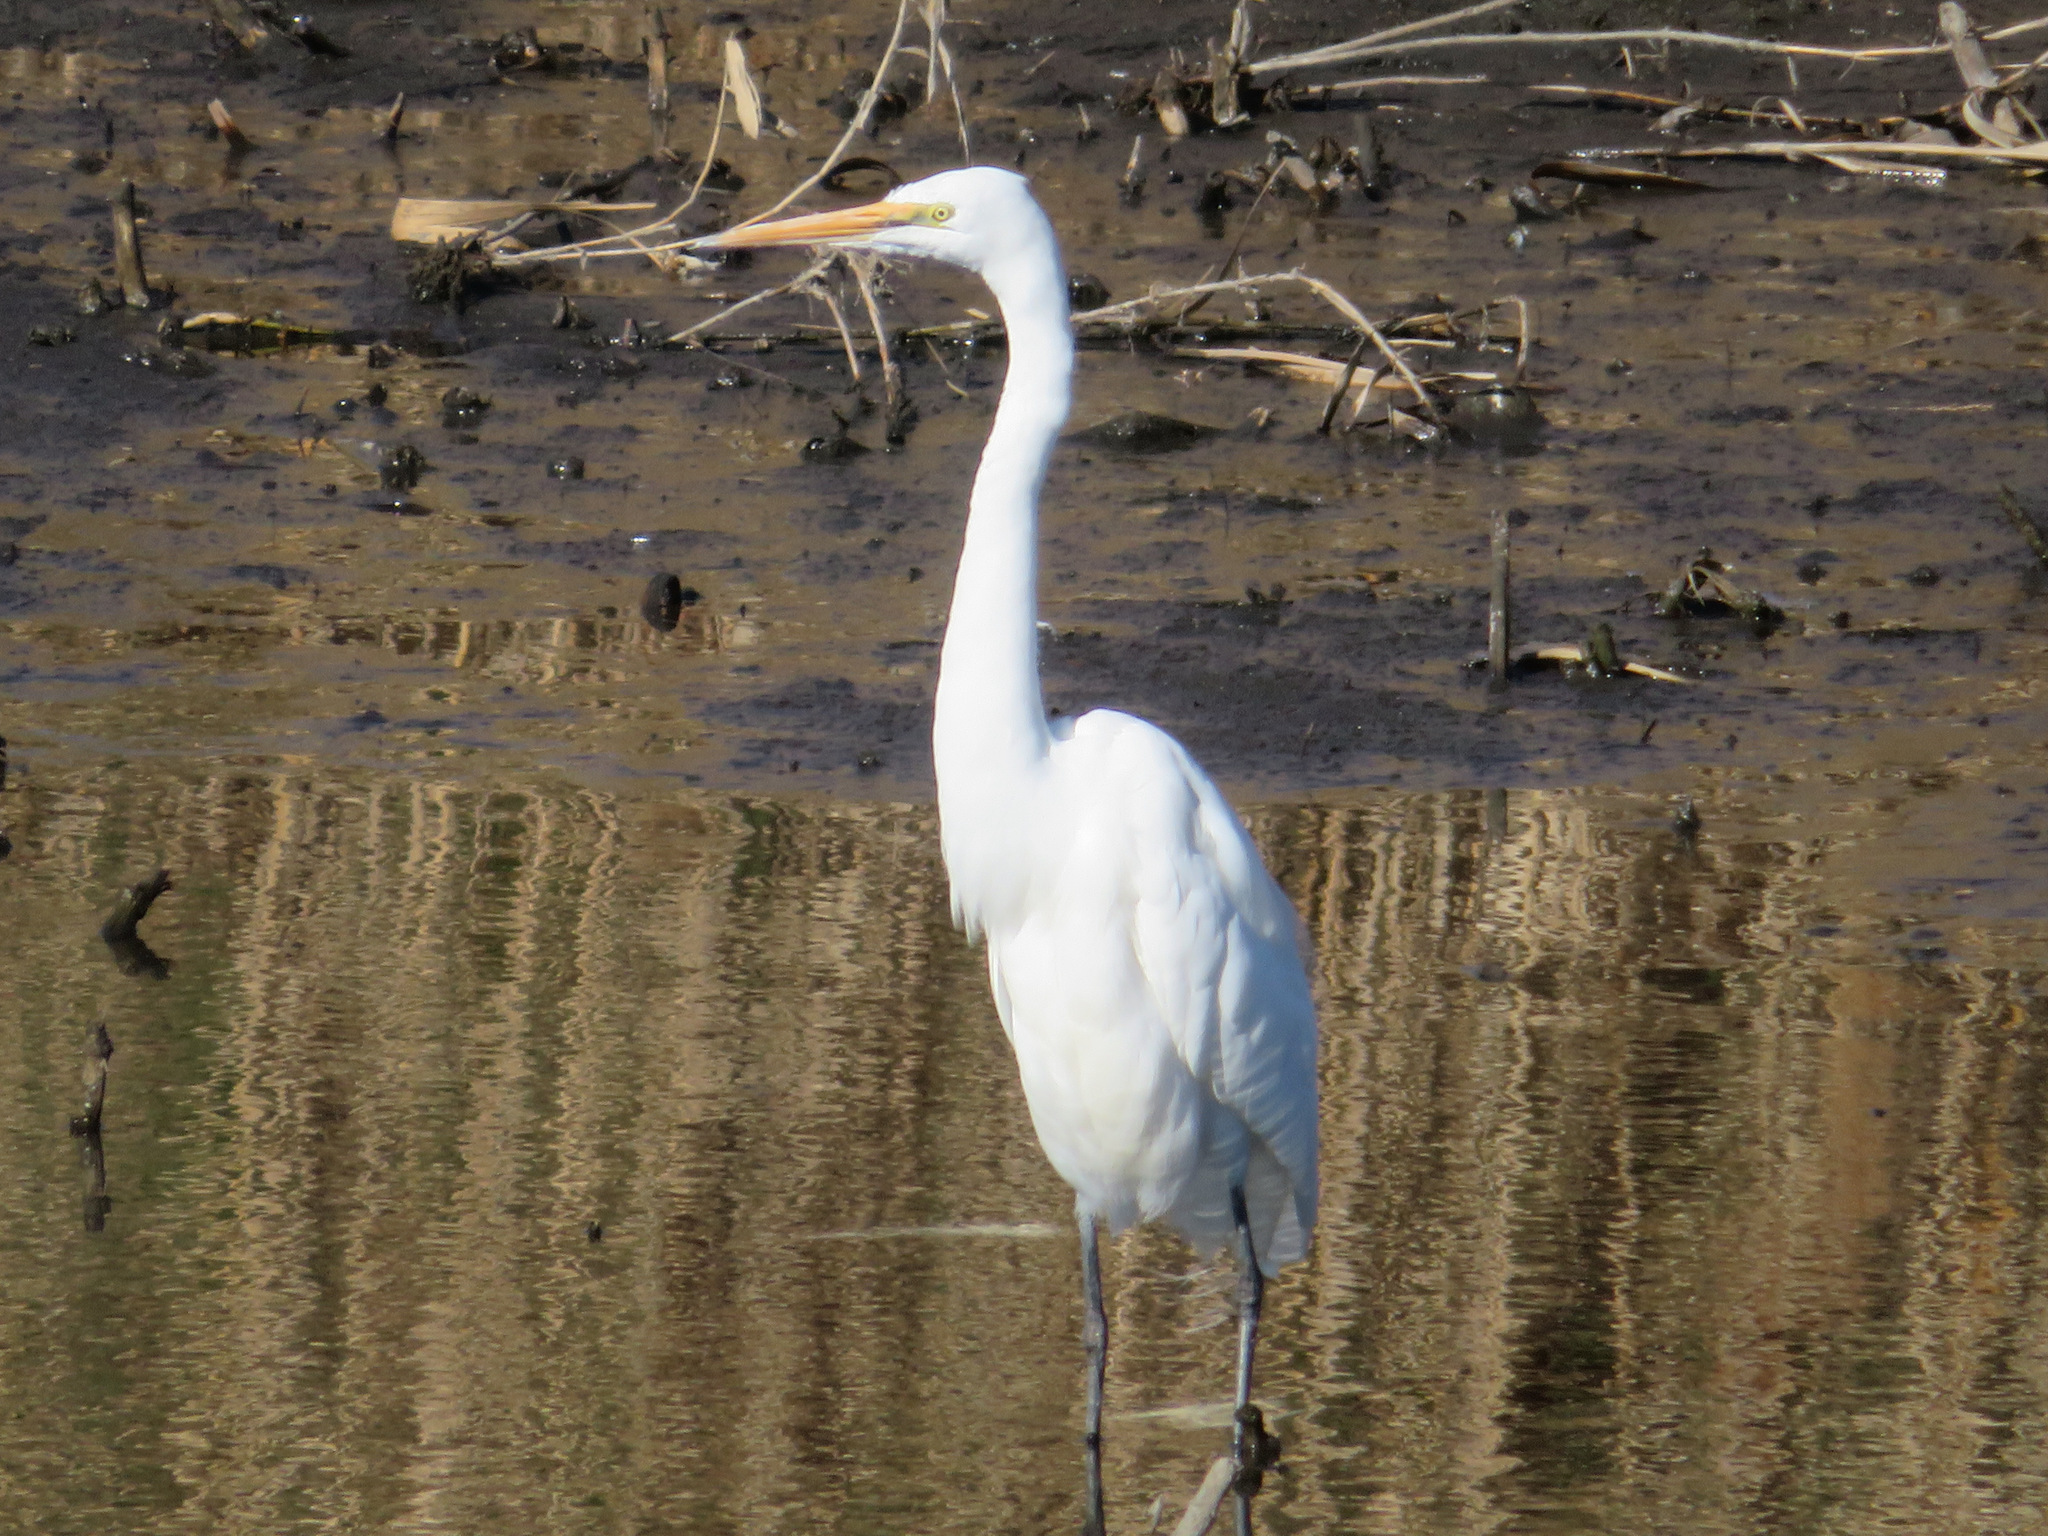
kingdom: Animalia
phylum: Chordata
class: Aves
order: Pelecaniformes
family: Ardeidae
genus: Ardea
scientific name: Ardea alba
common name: Great egret
